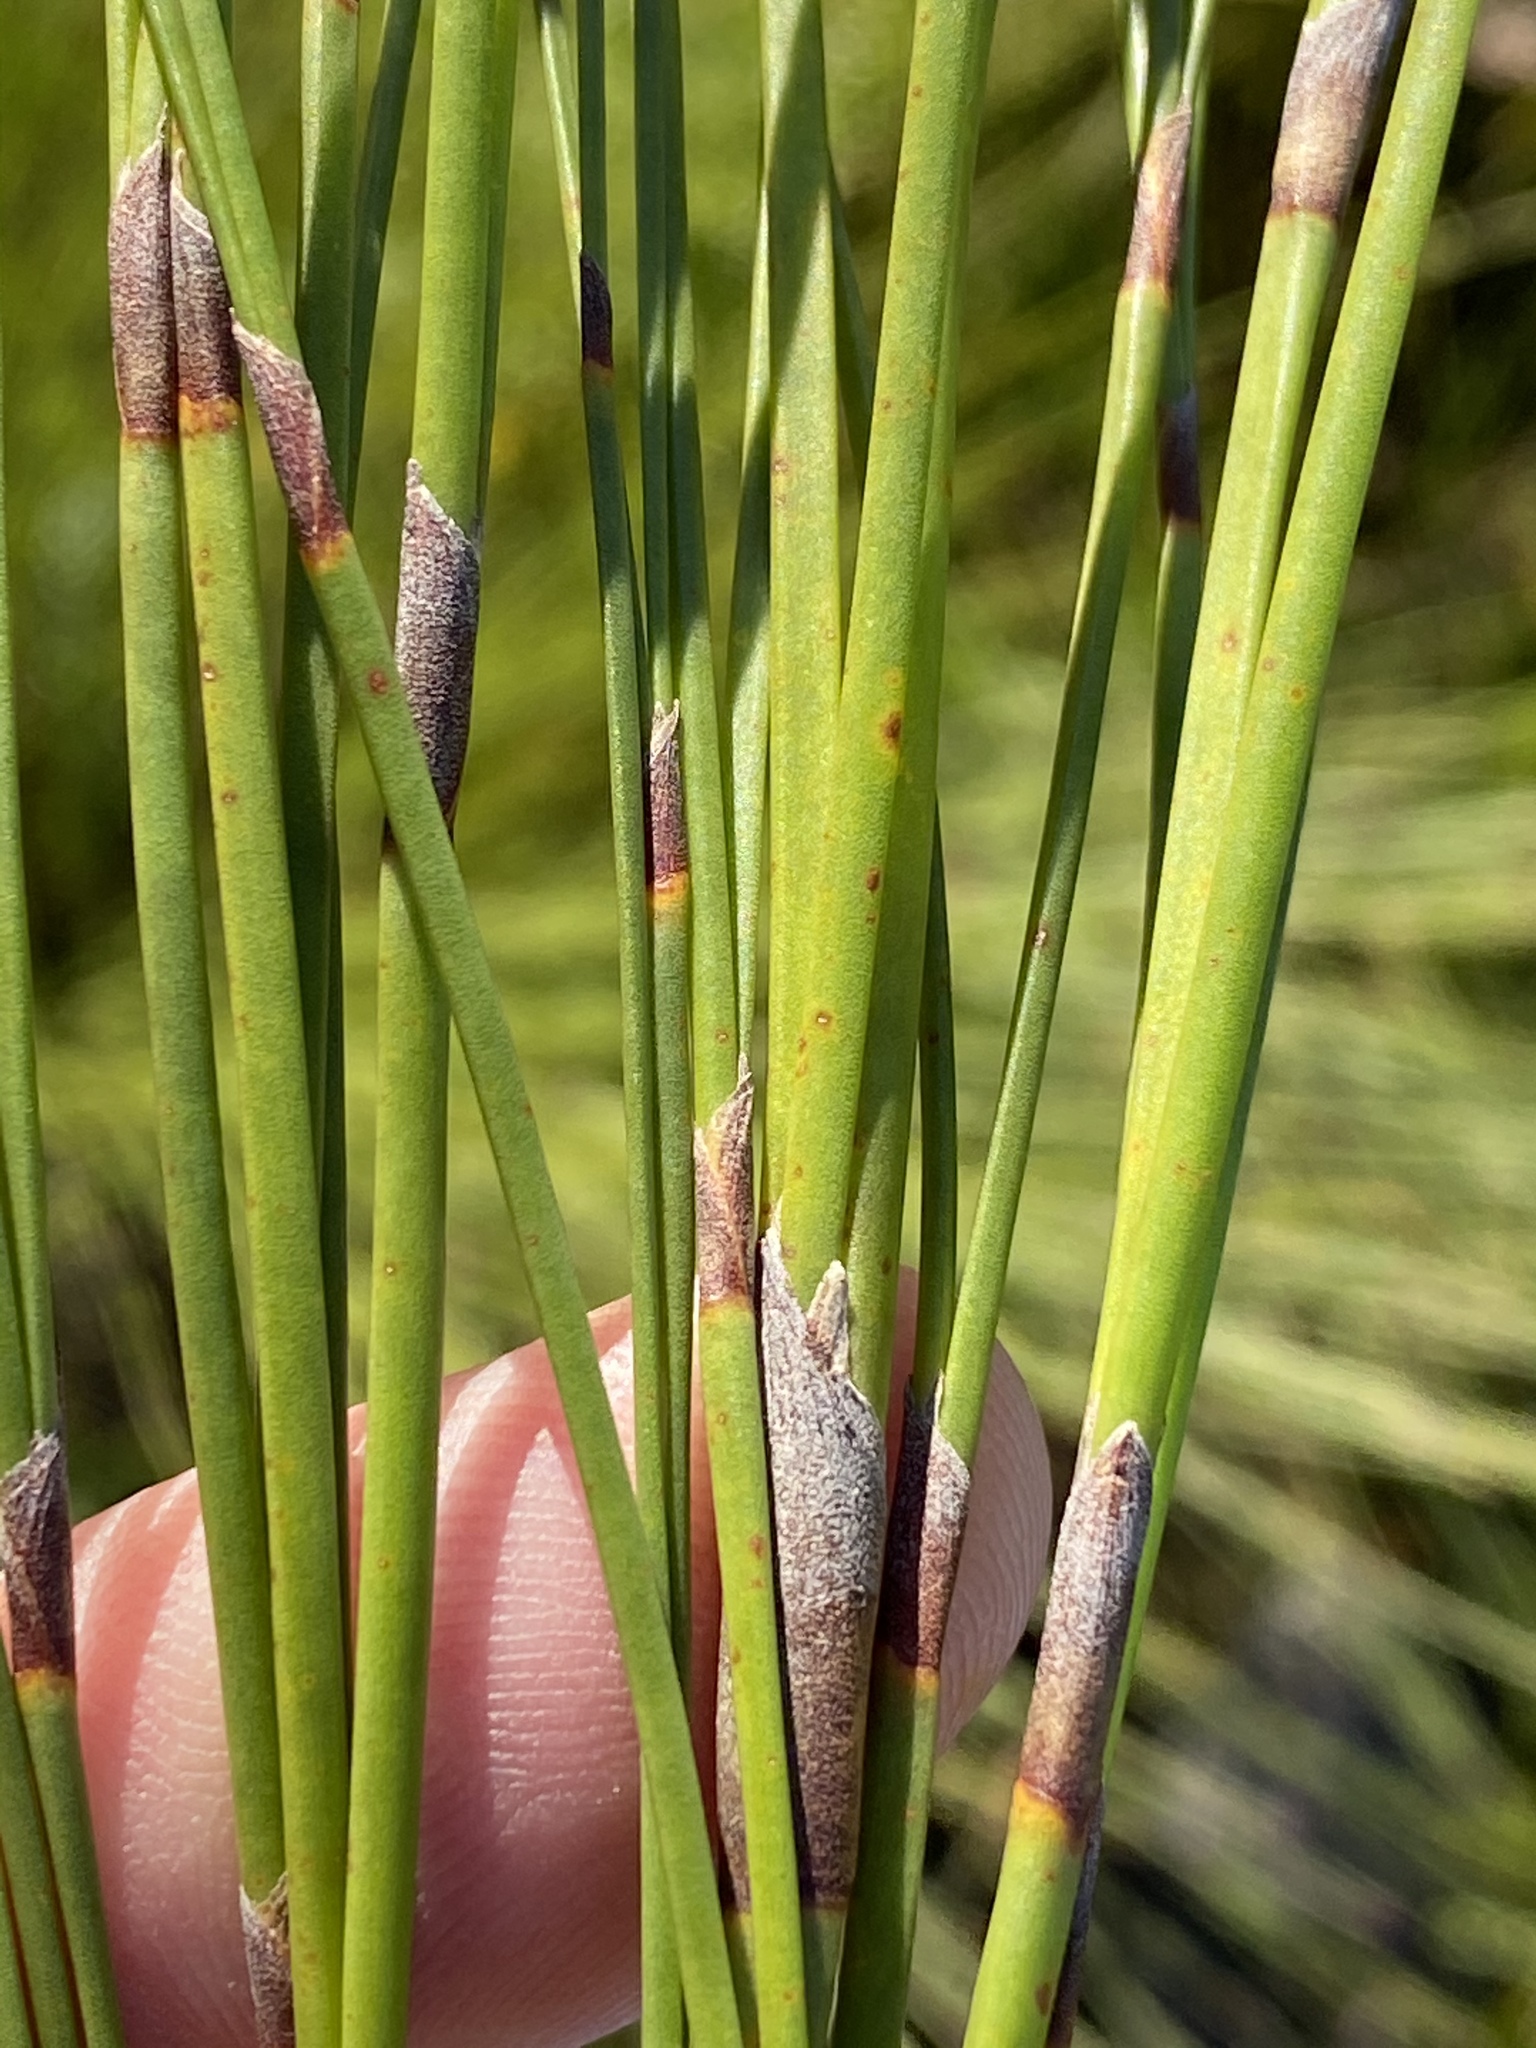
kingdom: Plantae
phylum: Tracheophyta
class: Liliopsida
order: Poales
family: Restionaceae
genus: Cannomois
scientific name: Cannomois virgata
